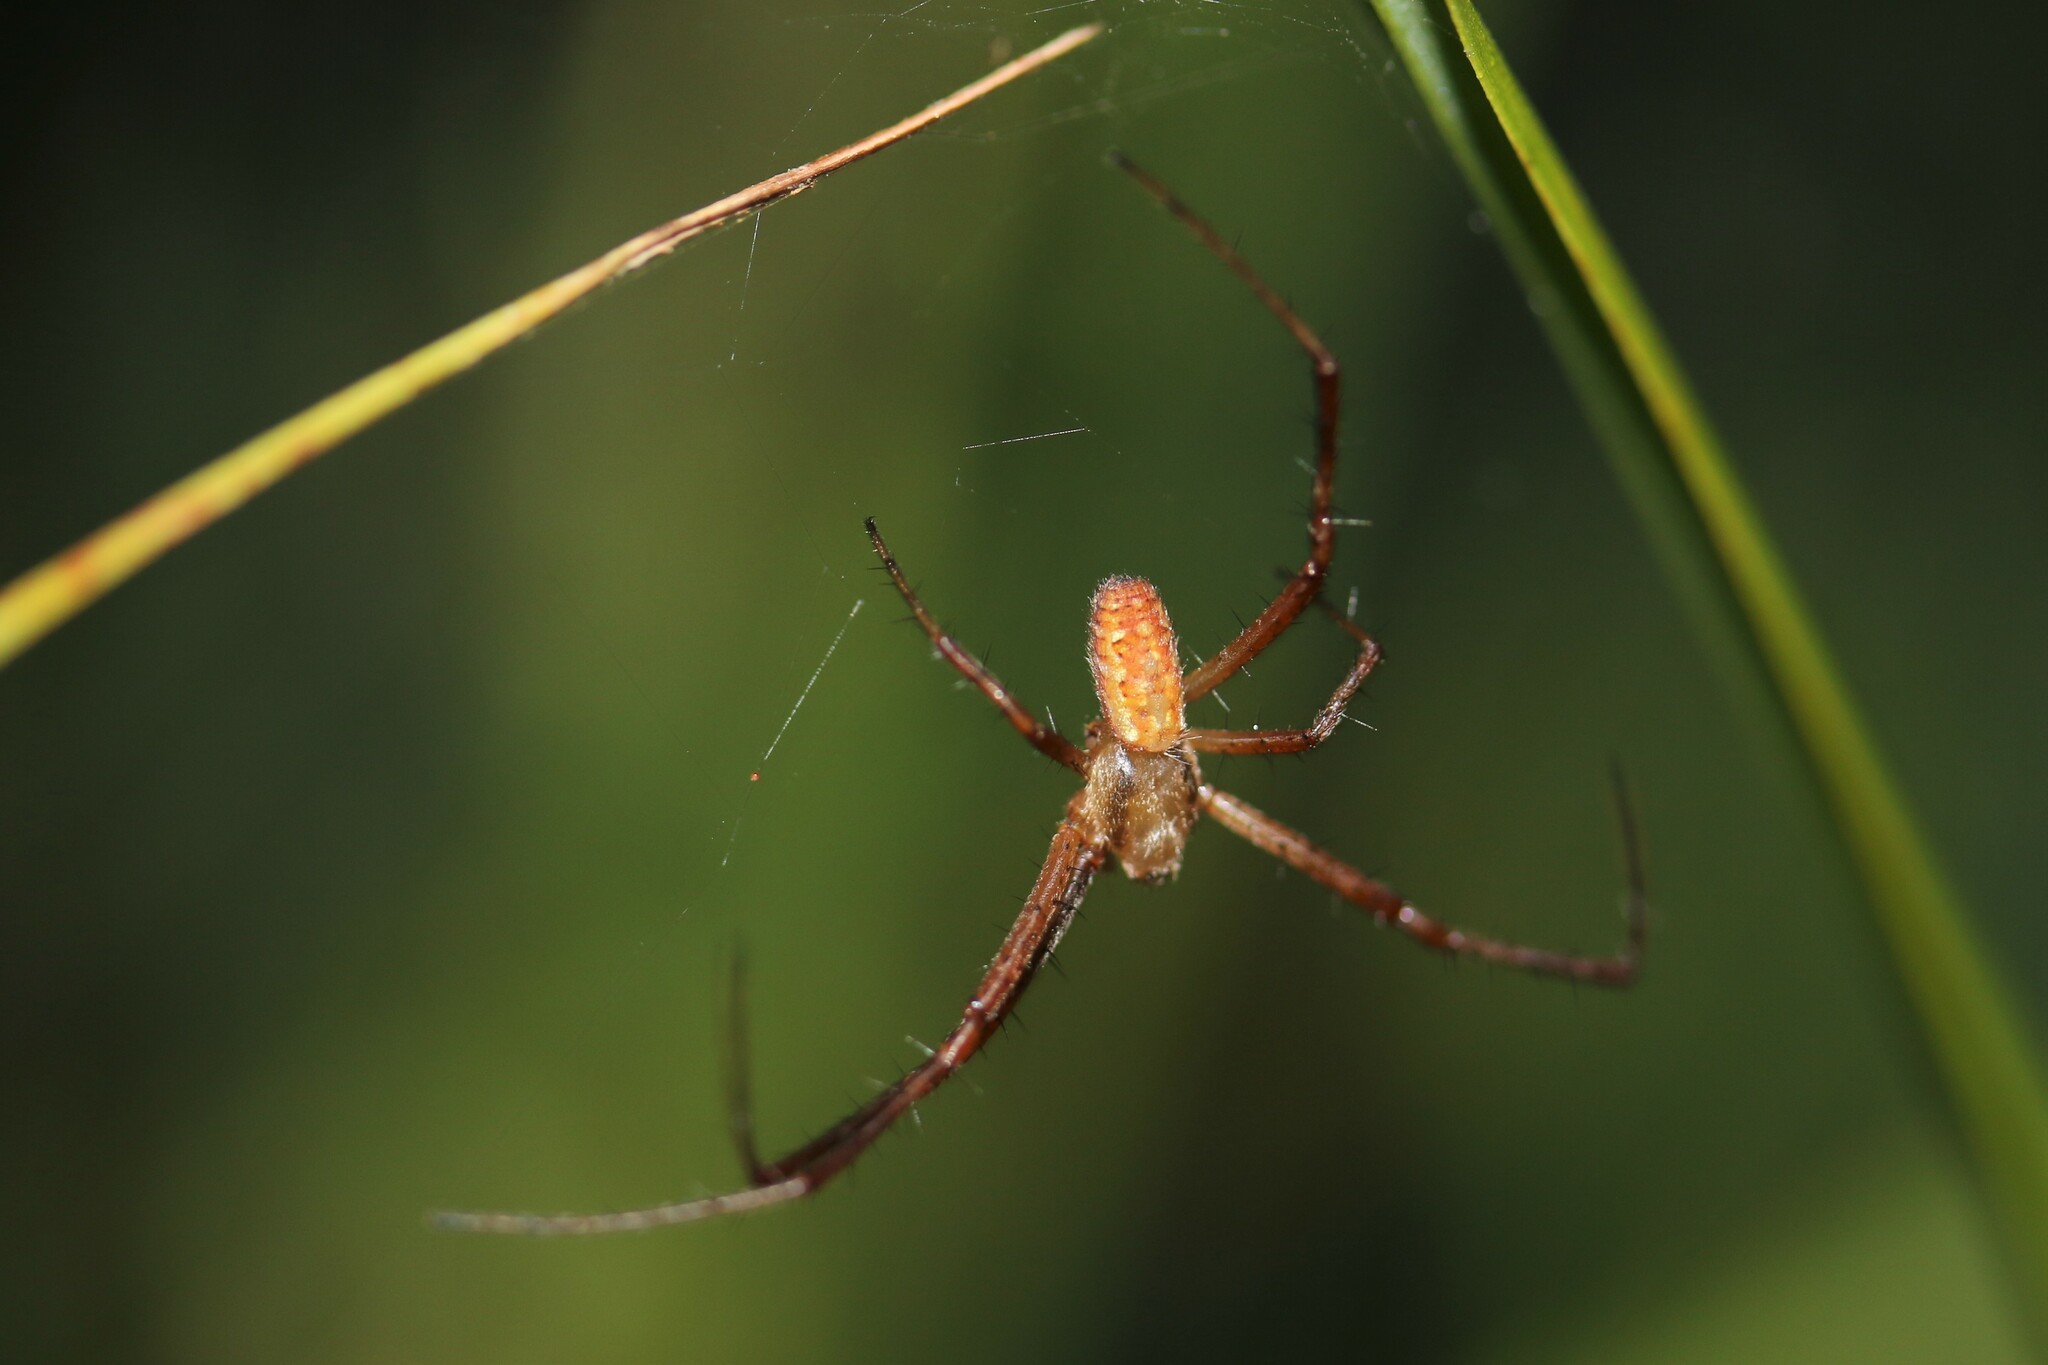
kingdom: Animalia
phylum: Arthropoda
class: Arachnida
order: Araneae
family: Araneidae
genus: Argiope
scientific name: Argiope bruennichi
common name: Wasp spider
